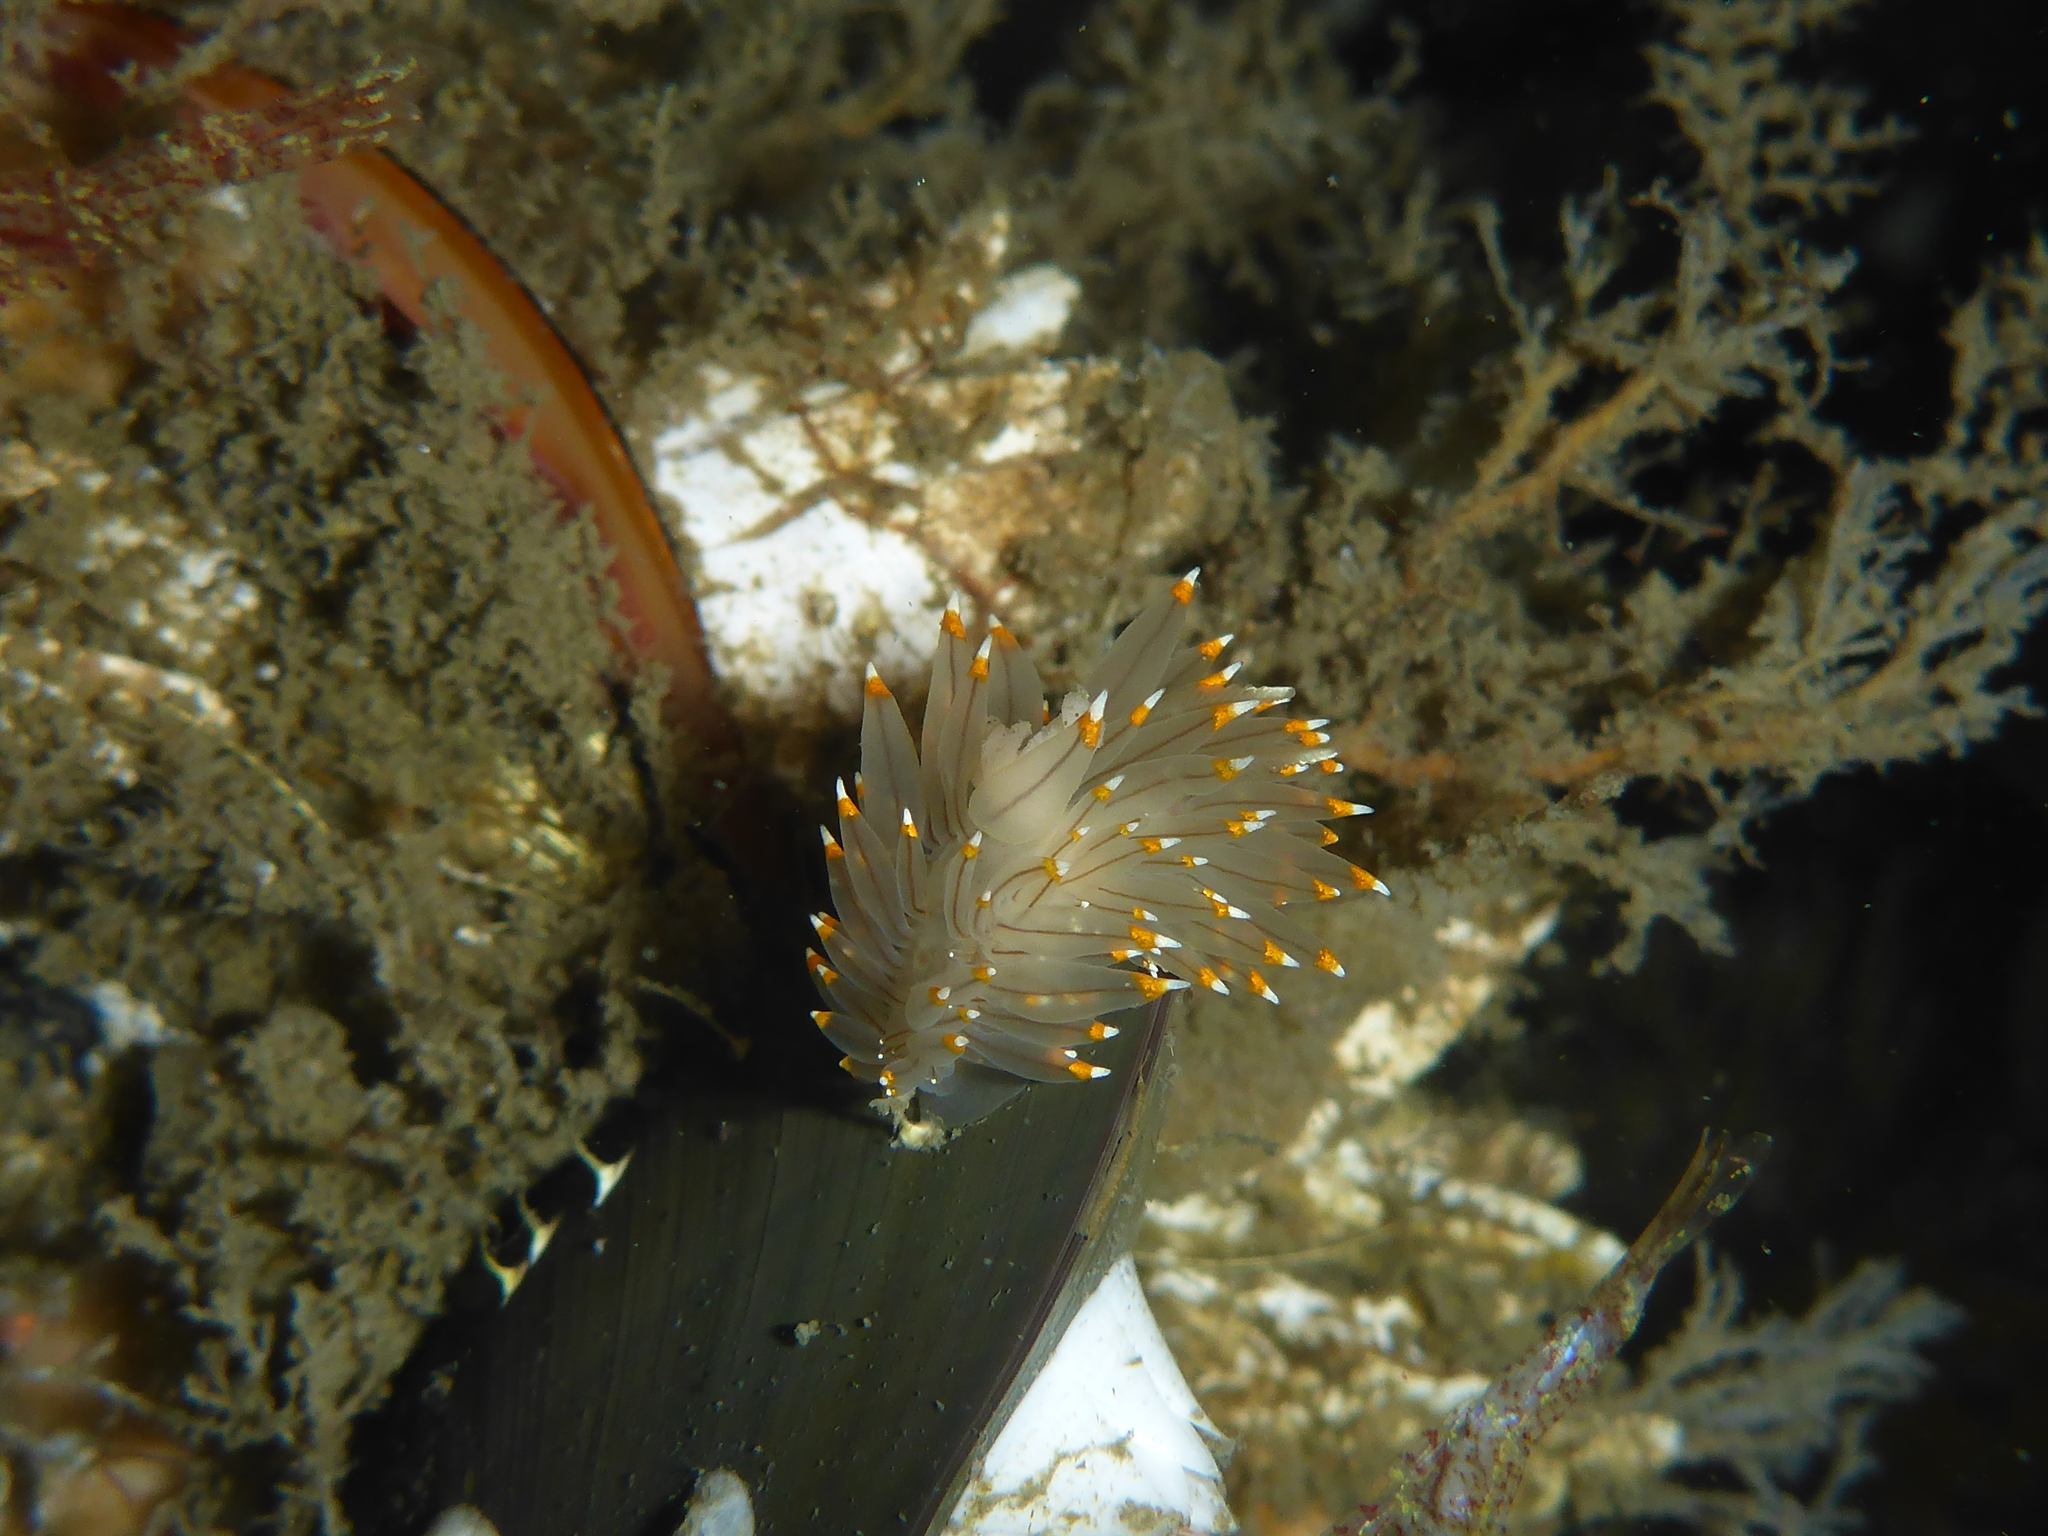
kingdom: Animalia
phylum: Mollusca
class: Gastropoda
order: Nudibranchia
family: Janolidae
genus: Antiopella
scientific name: Antiopella fusca
